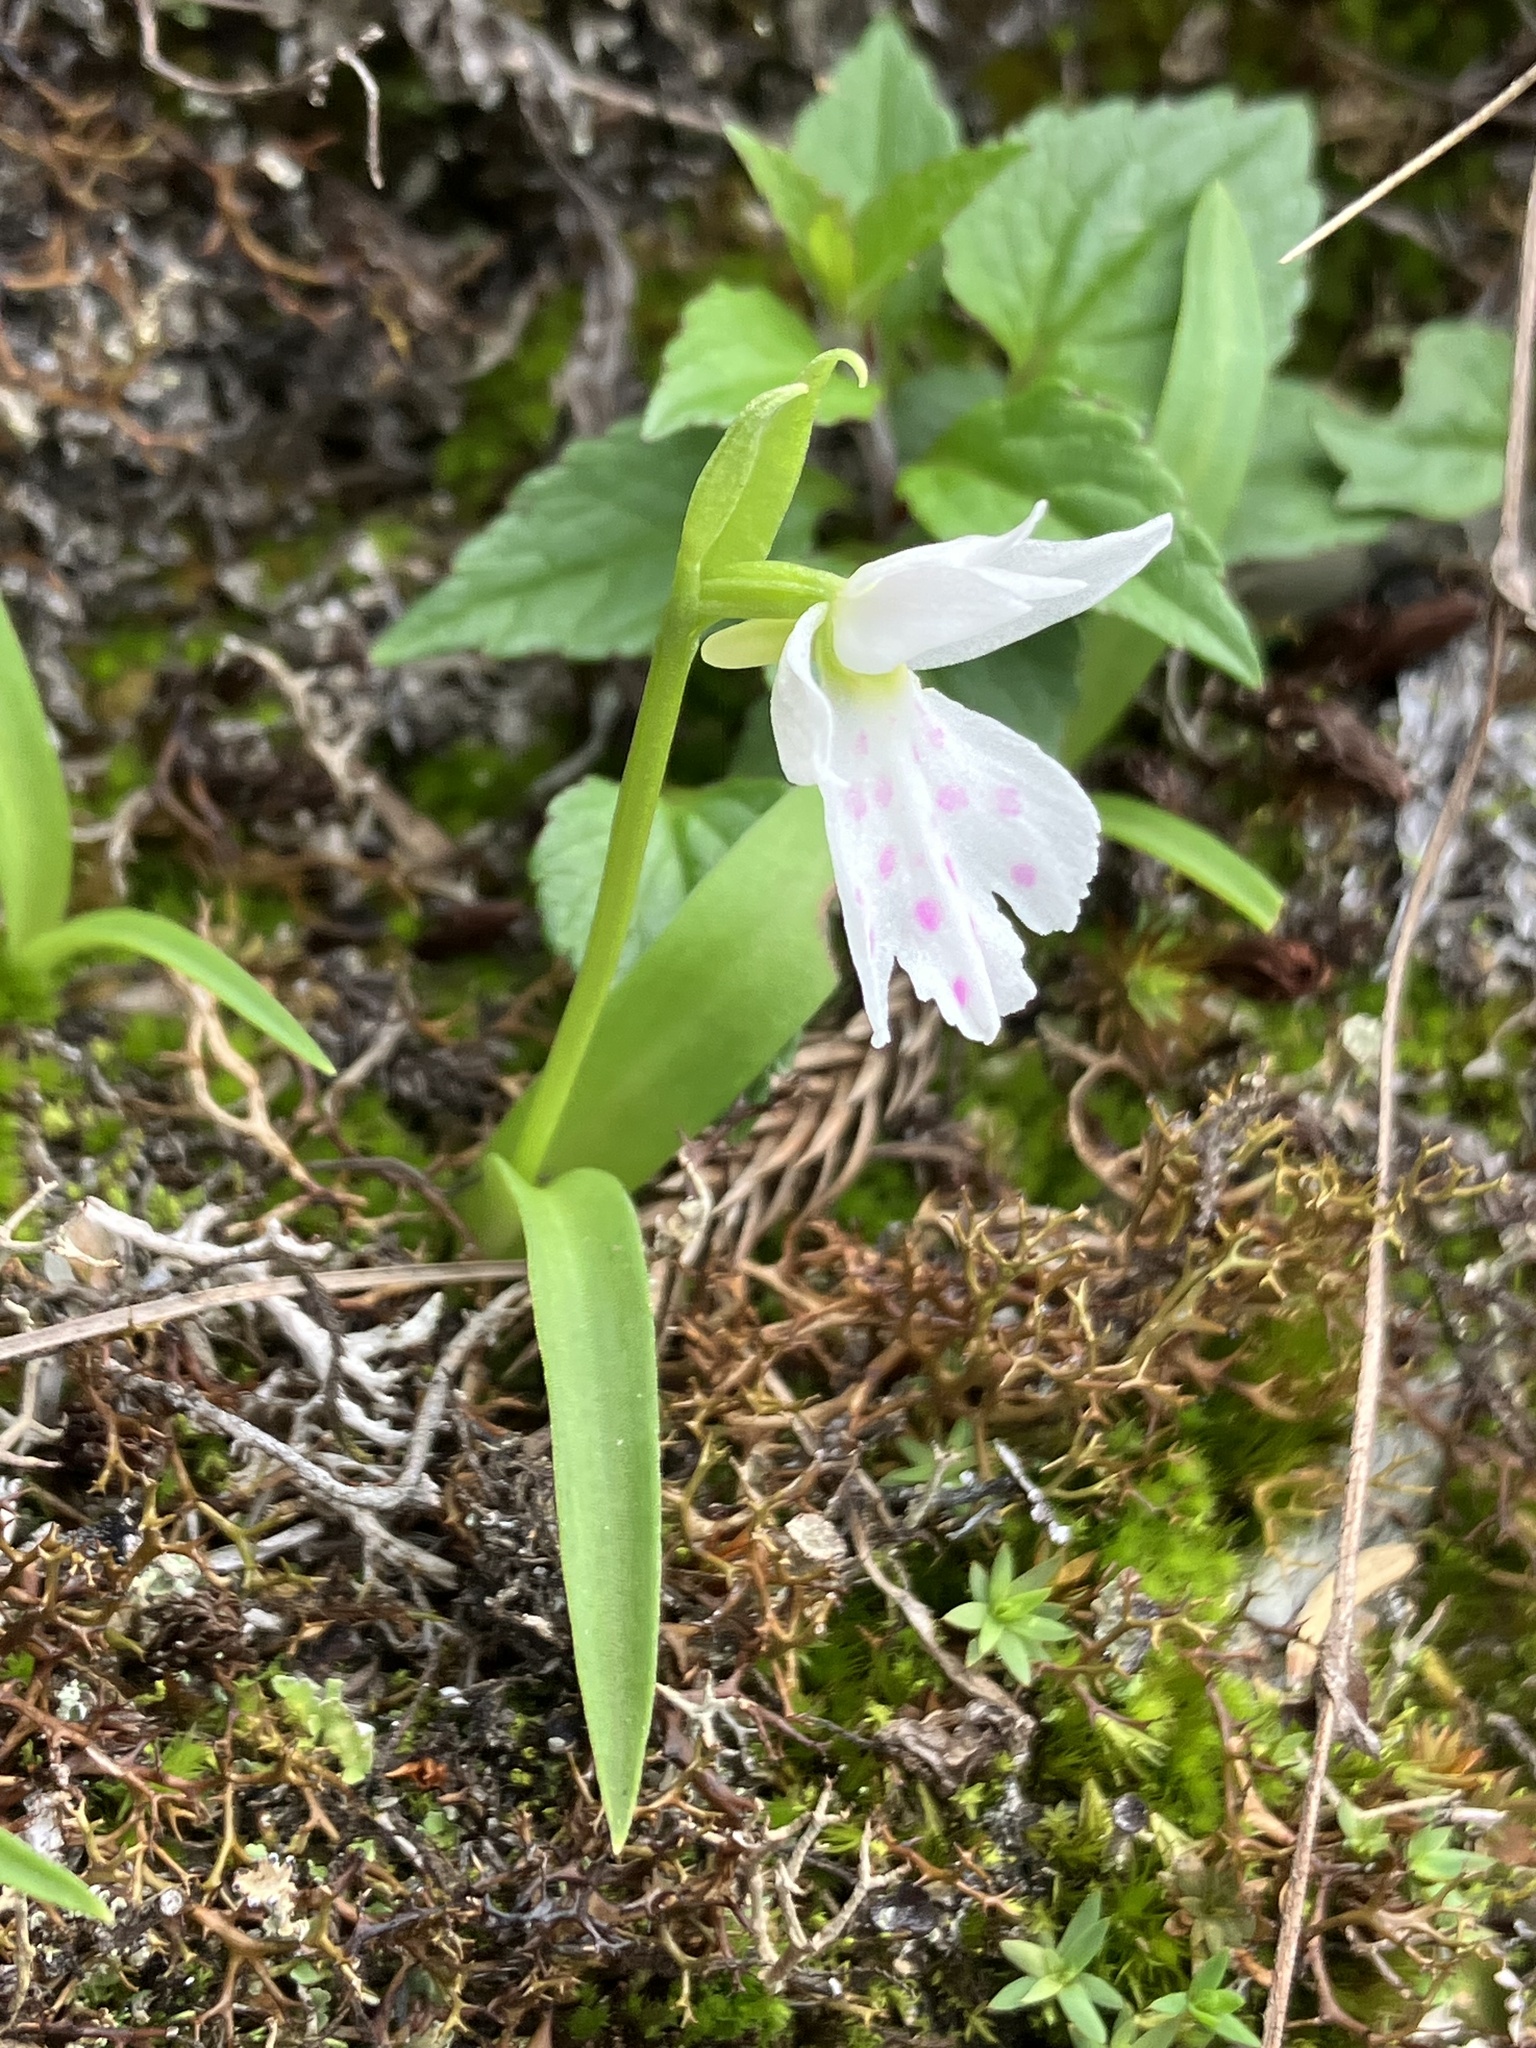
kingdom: Plantae
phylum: Tracheophyta
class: Liliopsida
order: Asparagales
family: Orchidaceae
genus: Hemipilia
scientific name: Hemipilia tominagae
